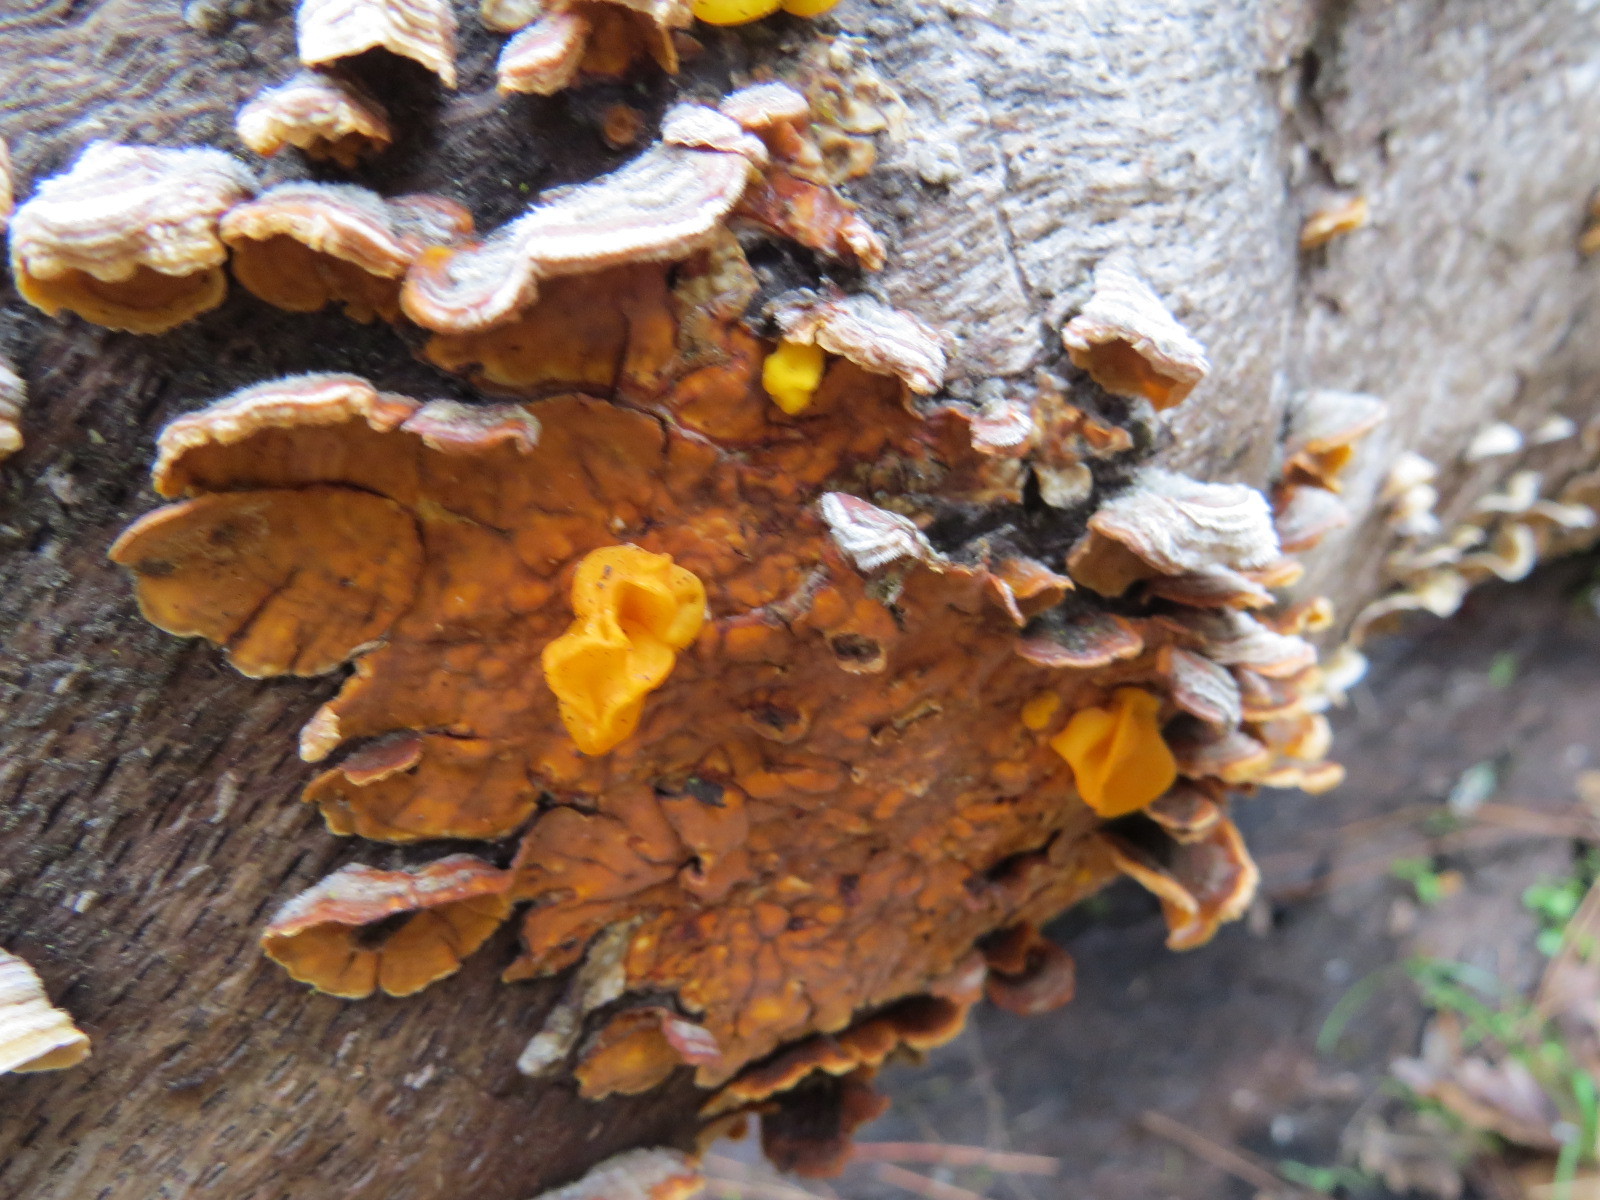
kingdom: Fungi
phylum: Basidiomycota
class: Tremellomycetes
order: Tremellales
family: Naemateliaceae
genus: Naematelia
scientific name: Naematelia aurantia
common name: Golden ear
